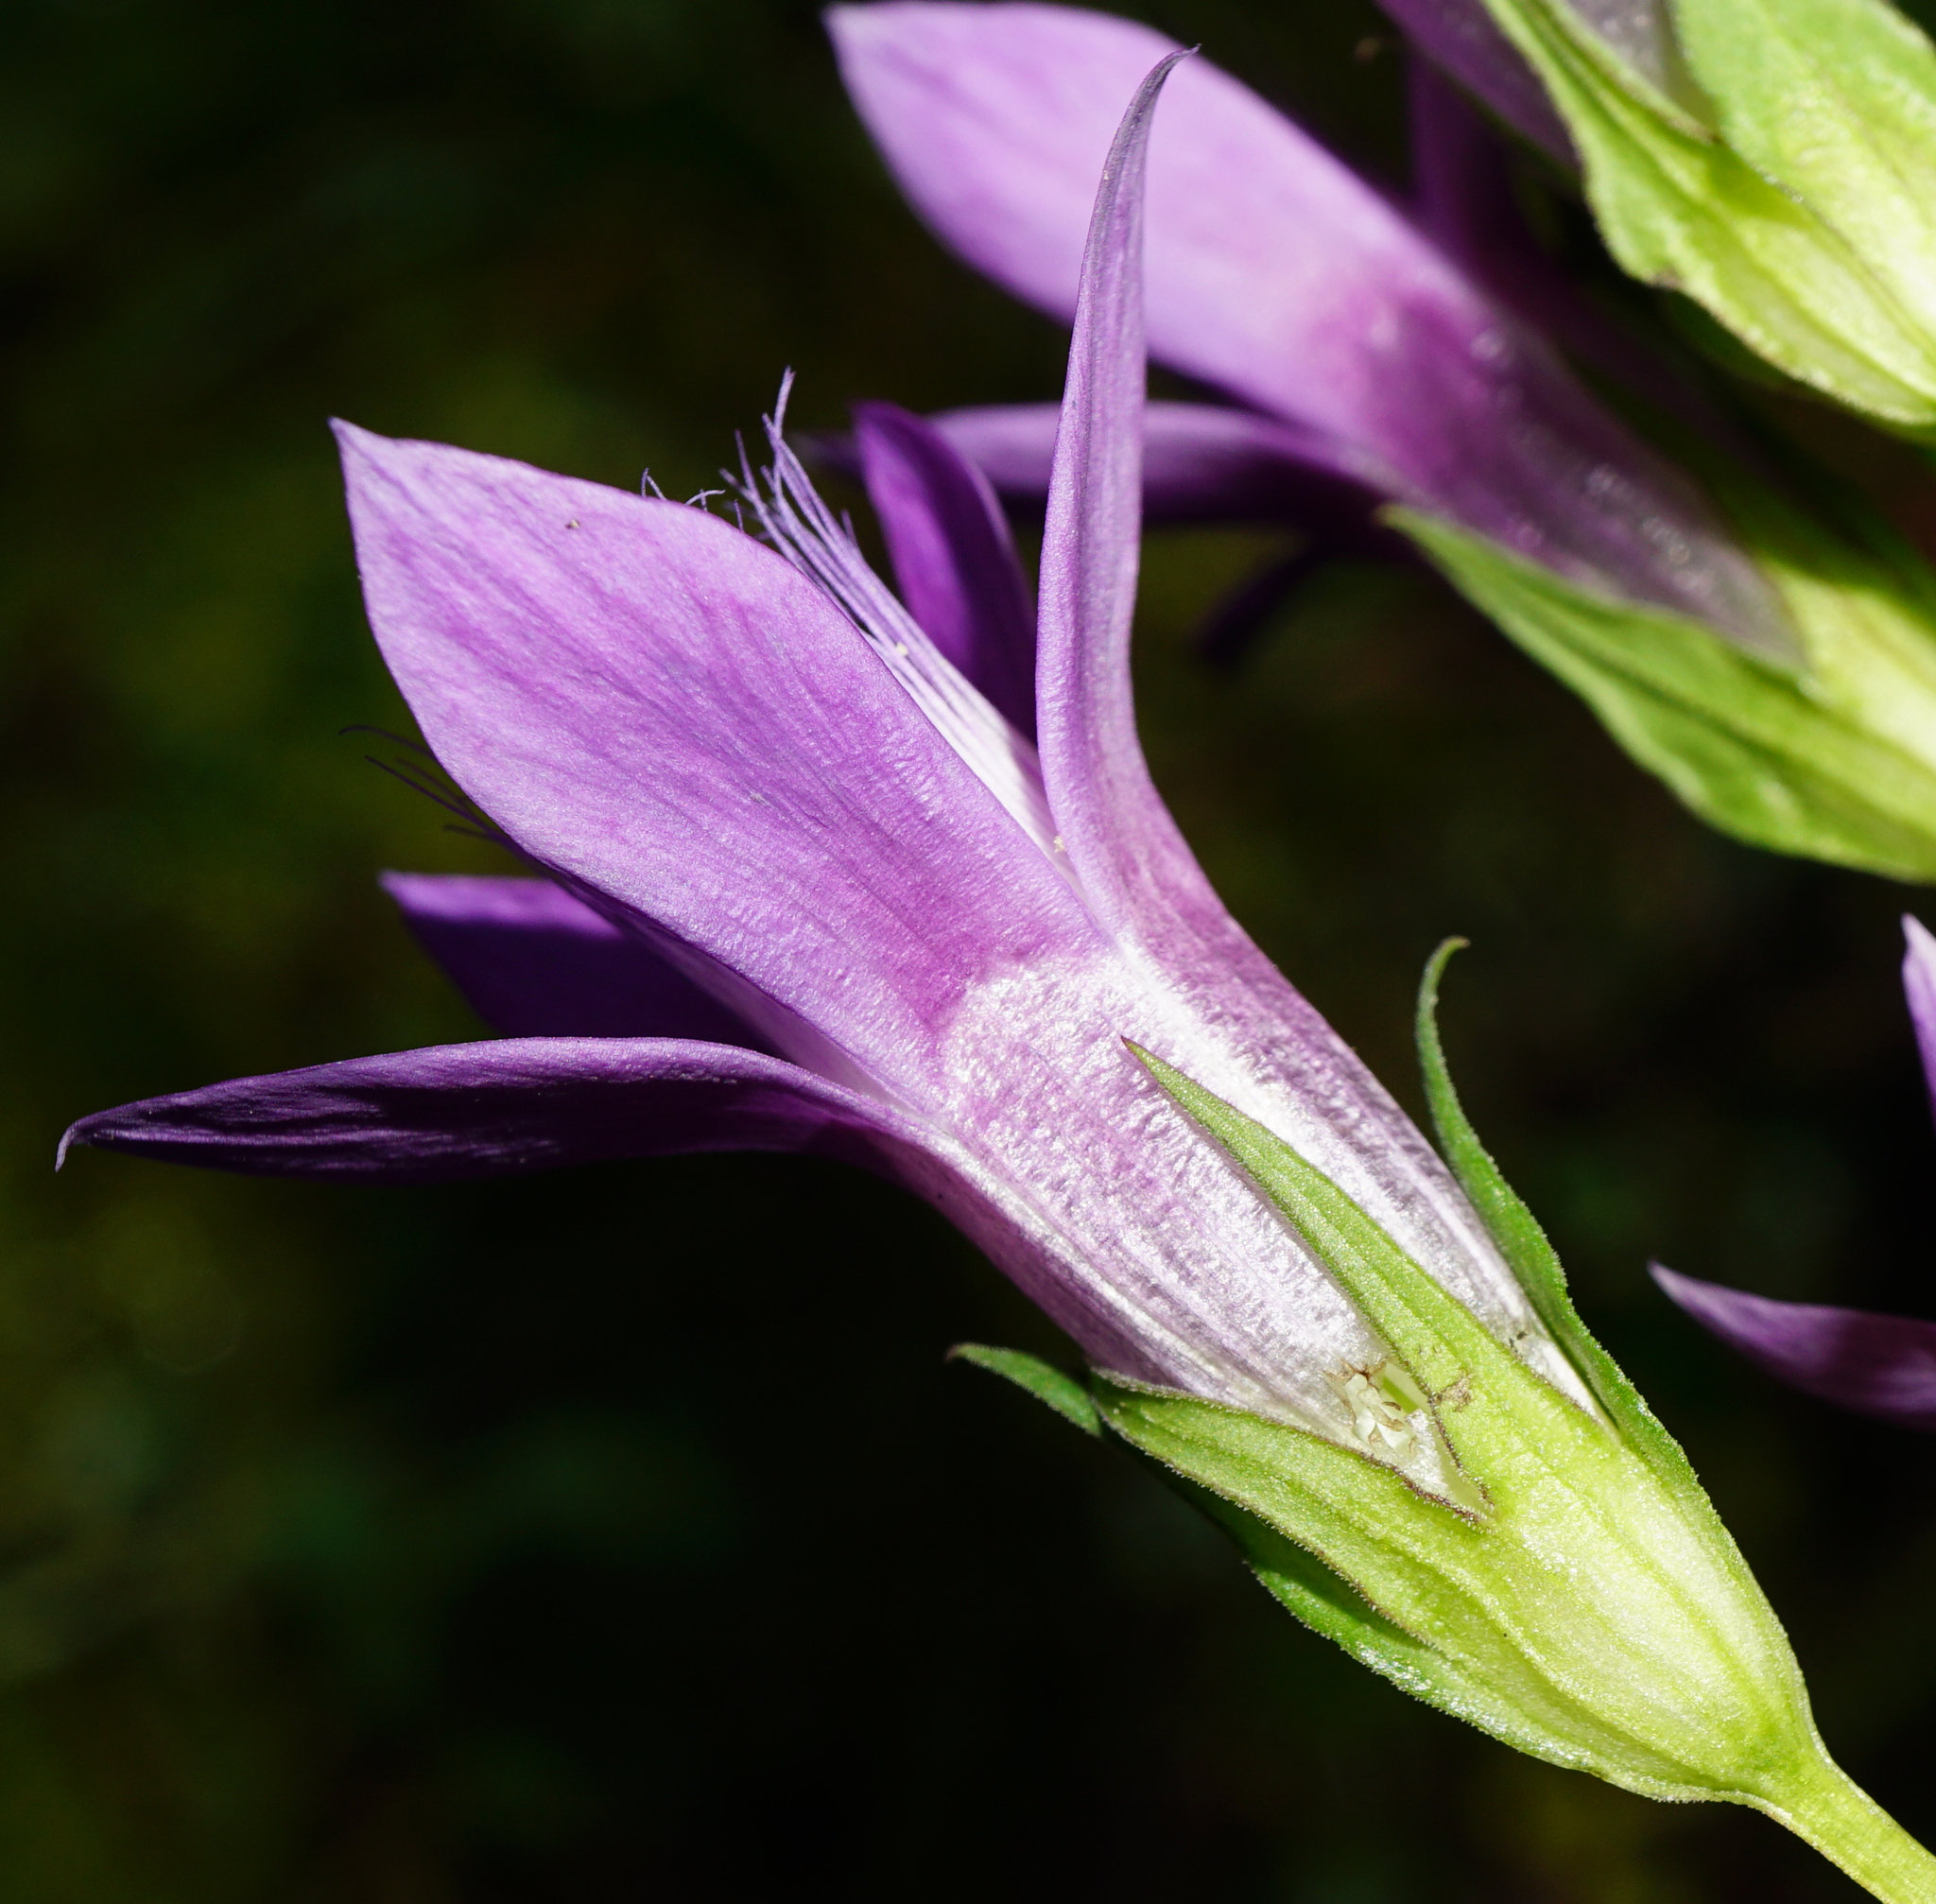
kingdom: Plantae
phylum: Tracheophyta
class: Magnoliopsida
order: Gentianales
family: Gentianaceae
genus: Gentianella
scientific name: Gentianella obtusifolia
